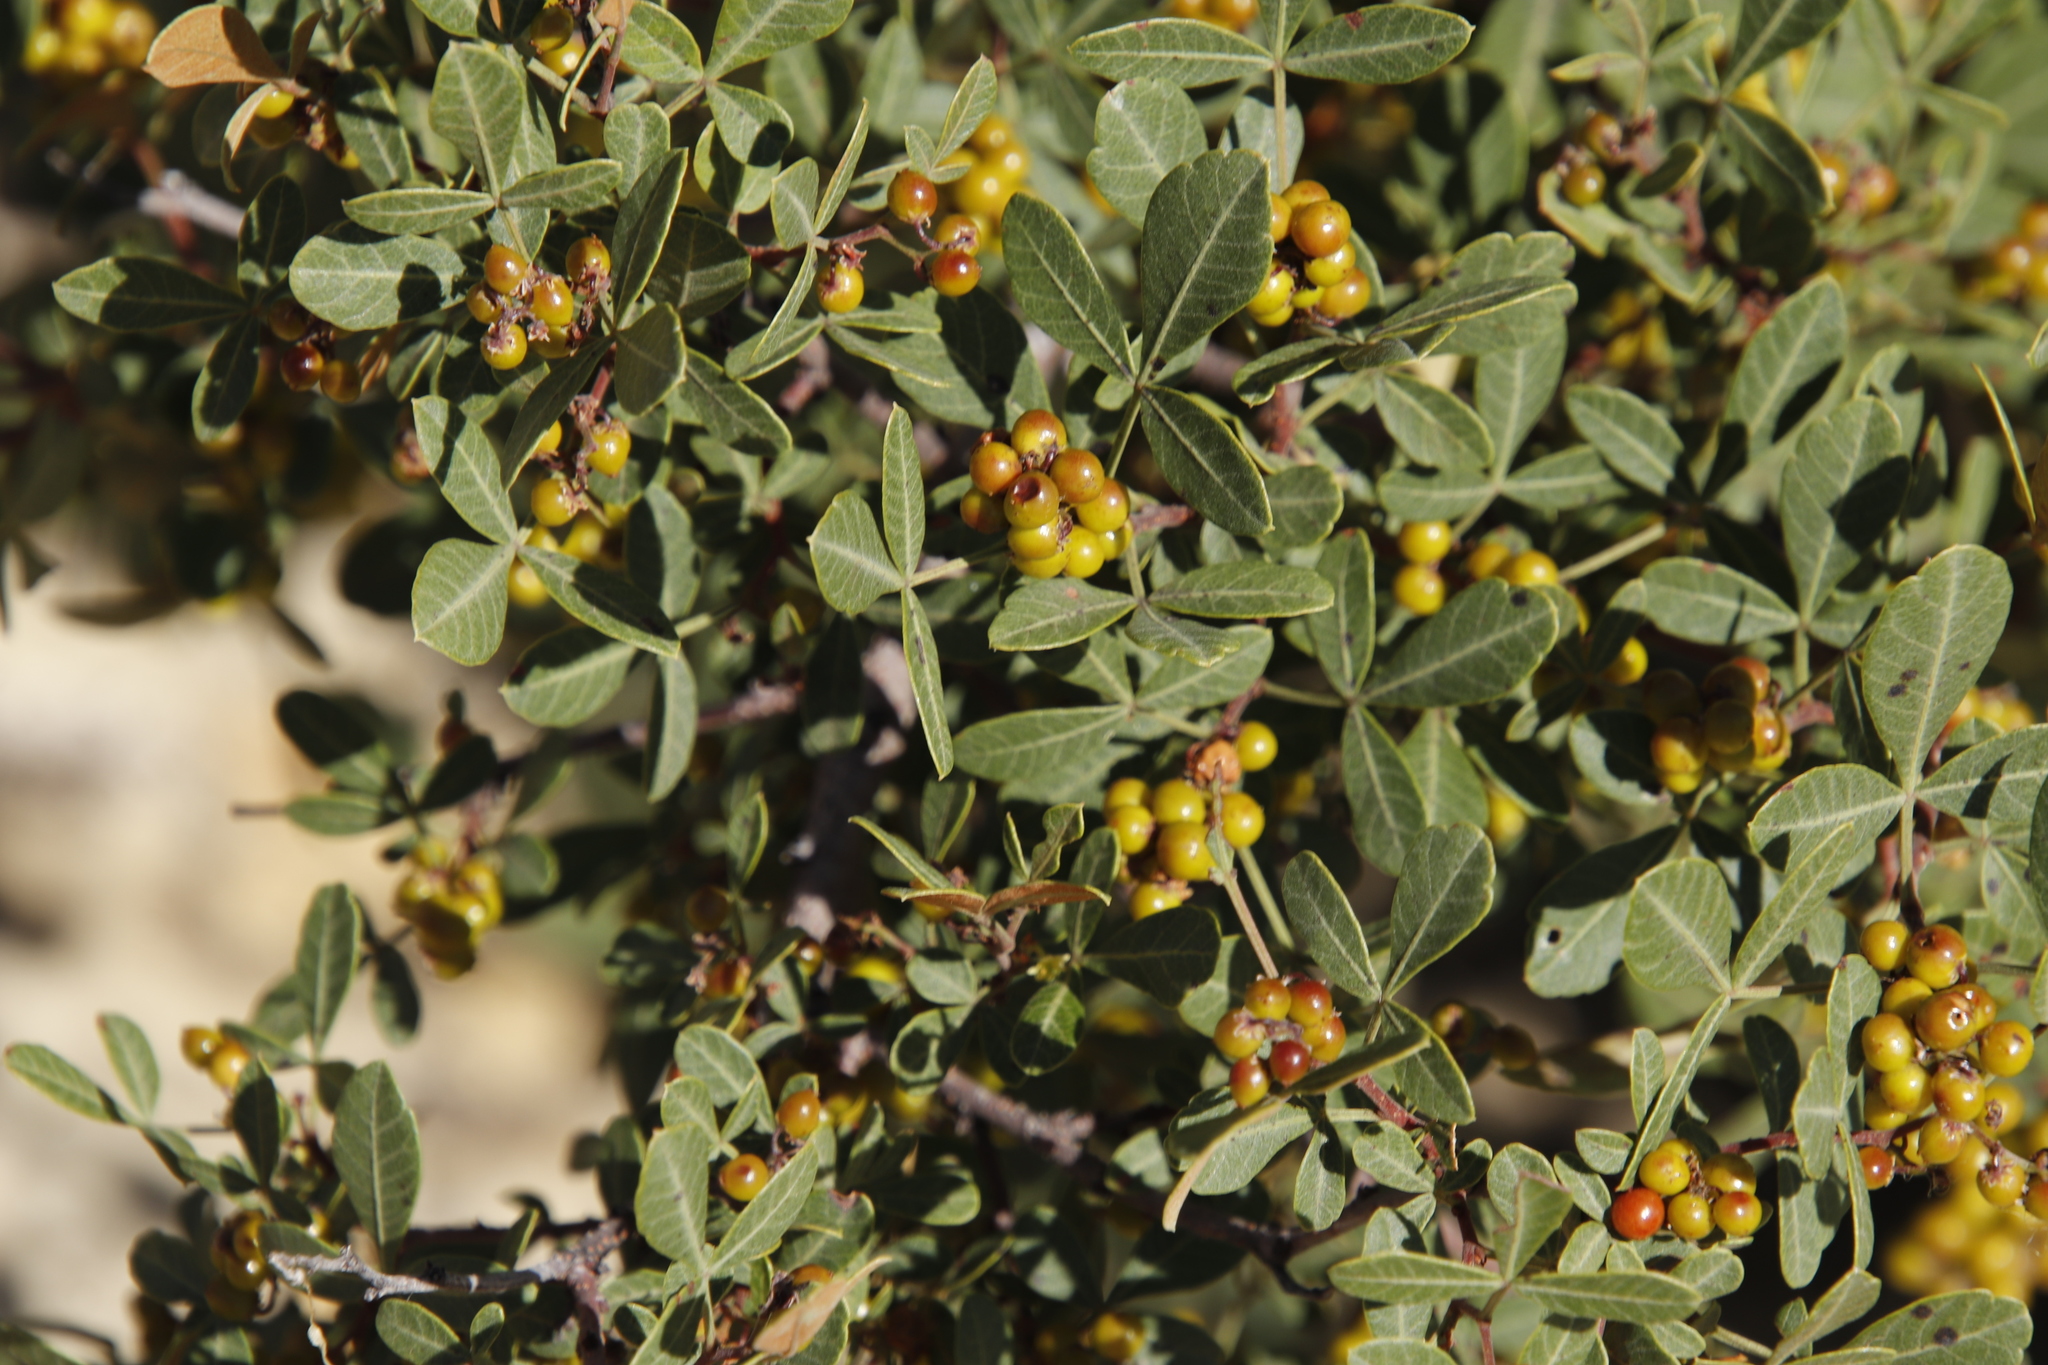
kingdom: Plantae
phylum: Tracheophyta
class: Magnoliopsida
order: Sapindales
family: Anacardiaceae
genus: Searsia
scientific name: Searsia divaricata
